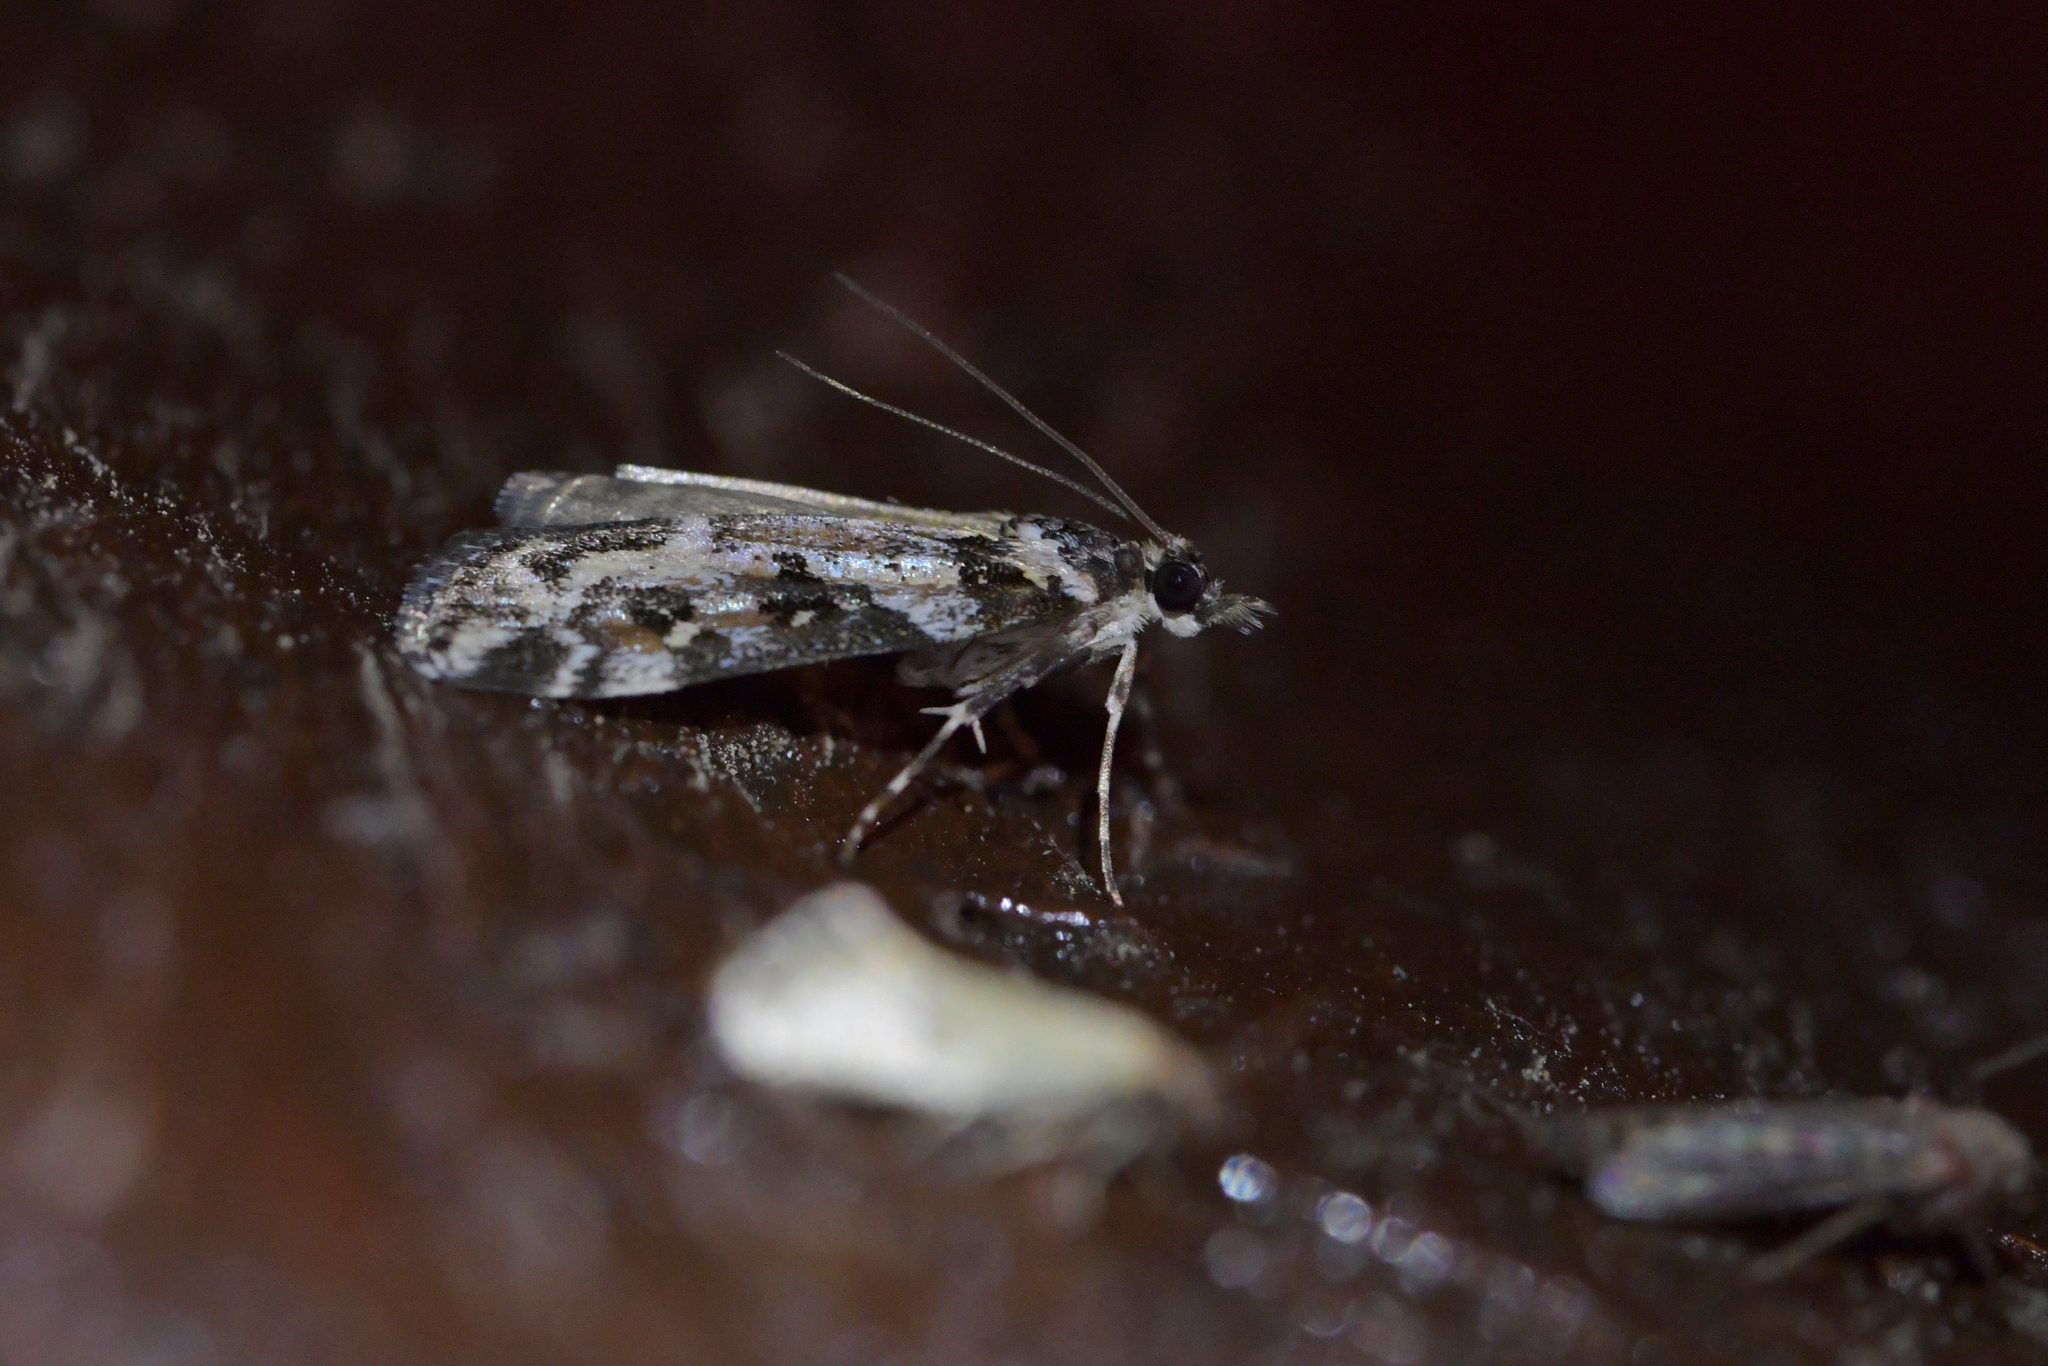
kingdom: Animalia
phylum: Arthropoda
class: Insecta
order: Lepidoptera
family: Crambidae
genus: Eudonia
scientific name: Eudonia diphtheralis
